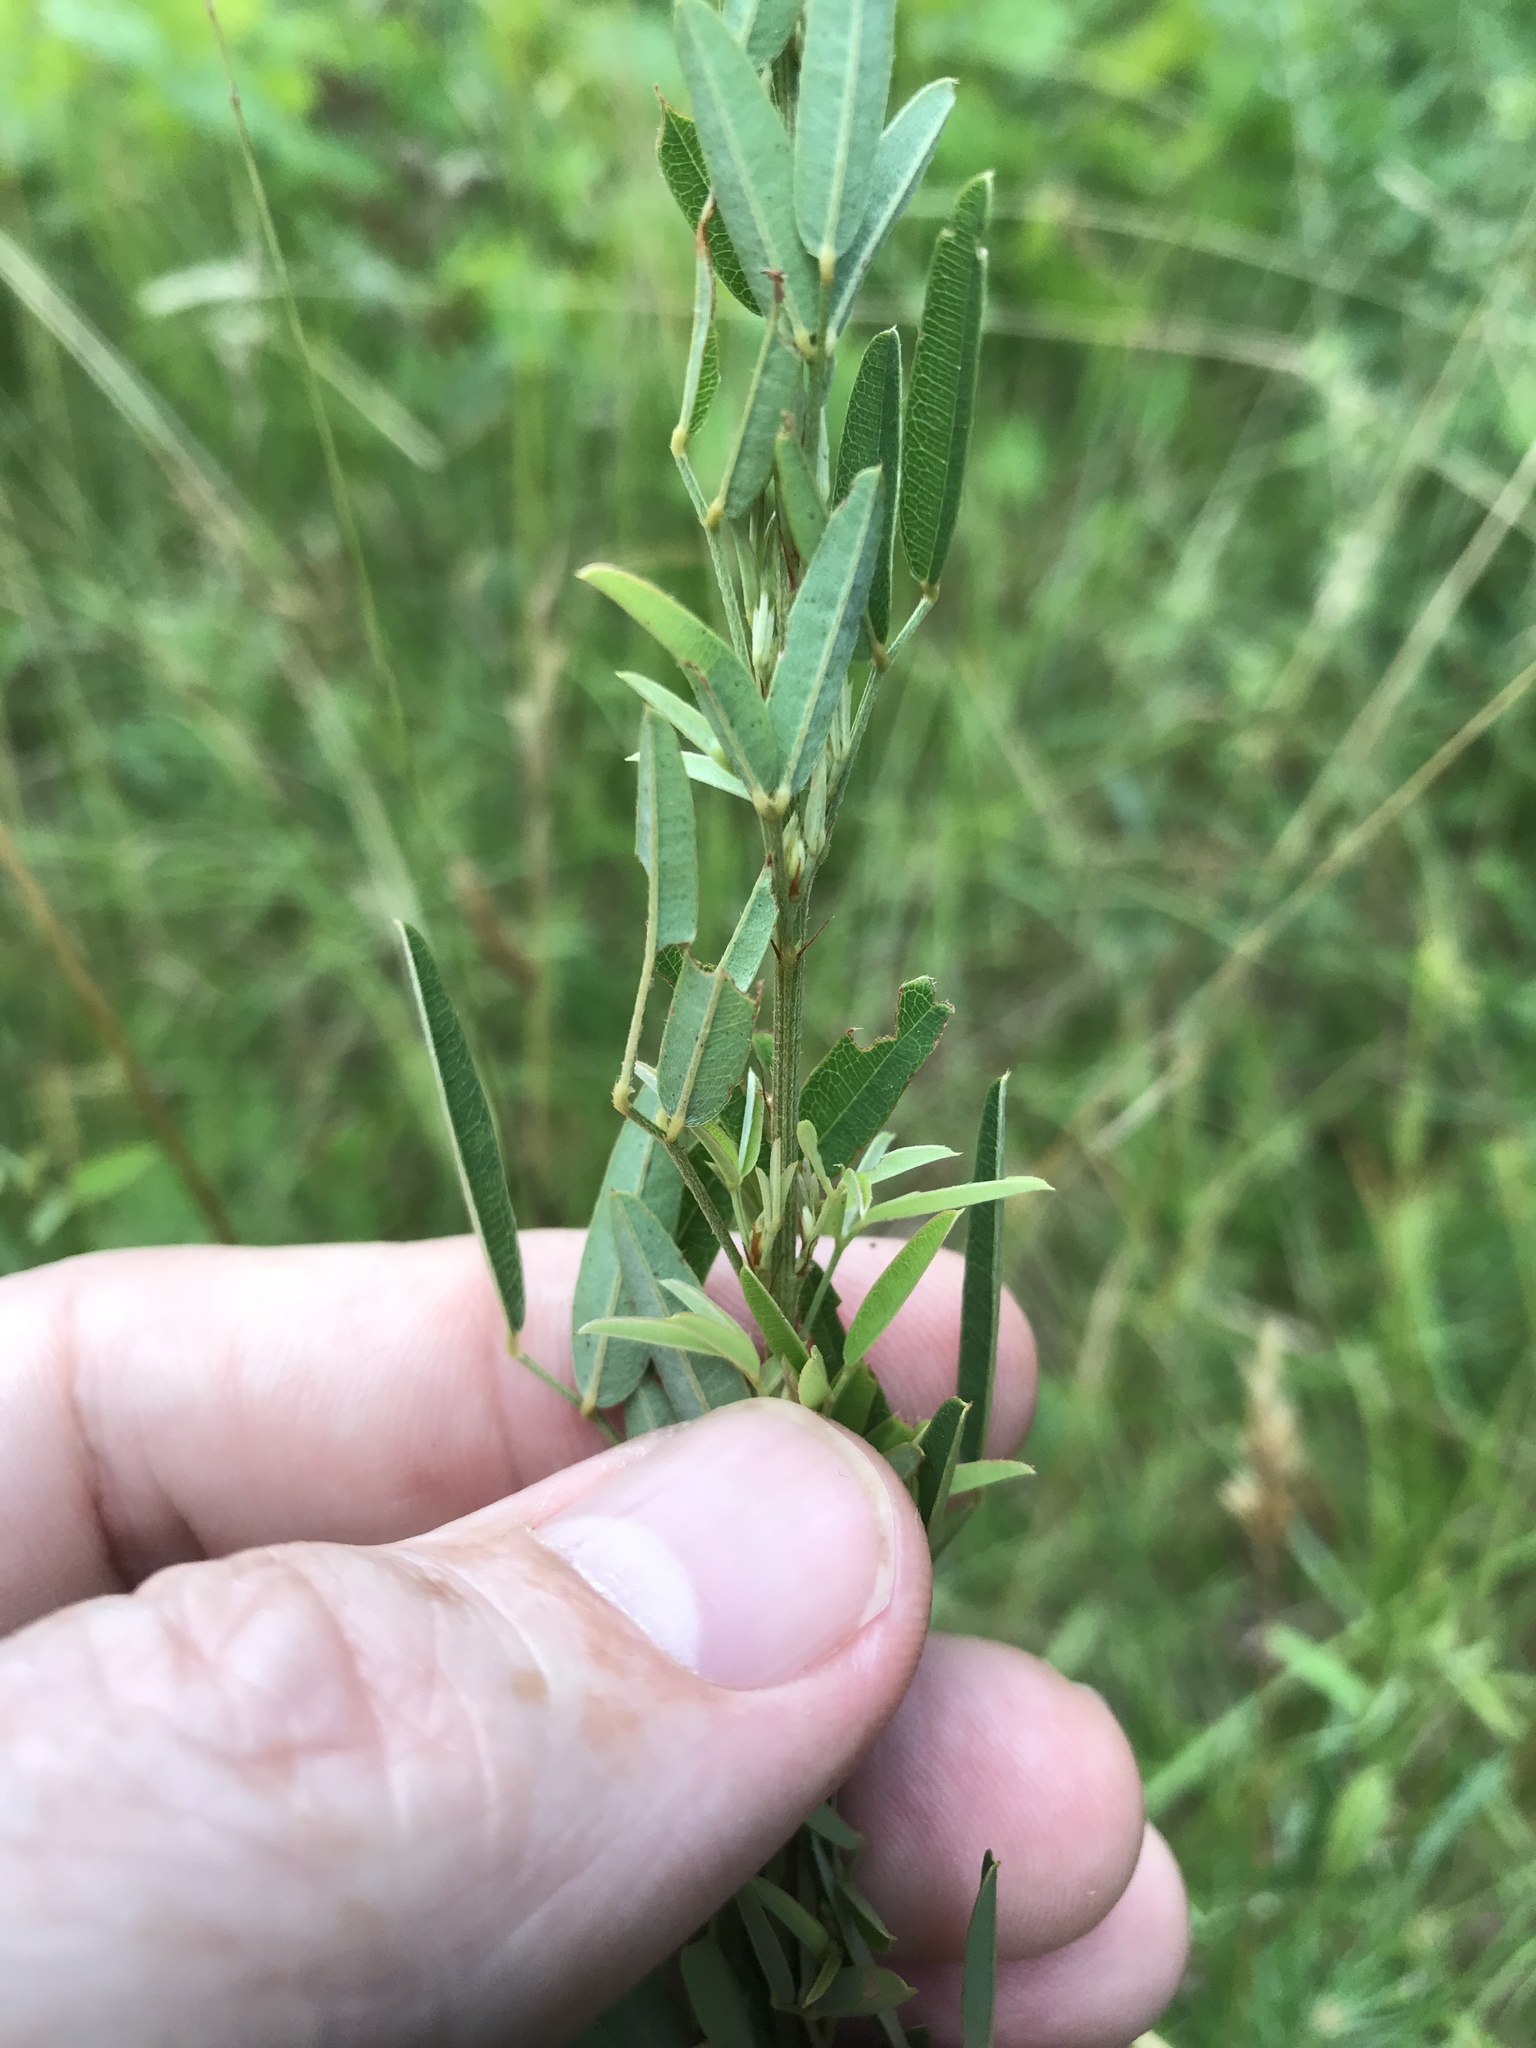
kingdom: Plantae
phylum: Tracheophyta
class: Magnoliopsida
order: Fabales
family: Fabaceae
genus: Lespedeza
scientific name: Lespedeza virginica
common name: Slender bush-clover
